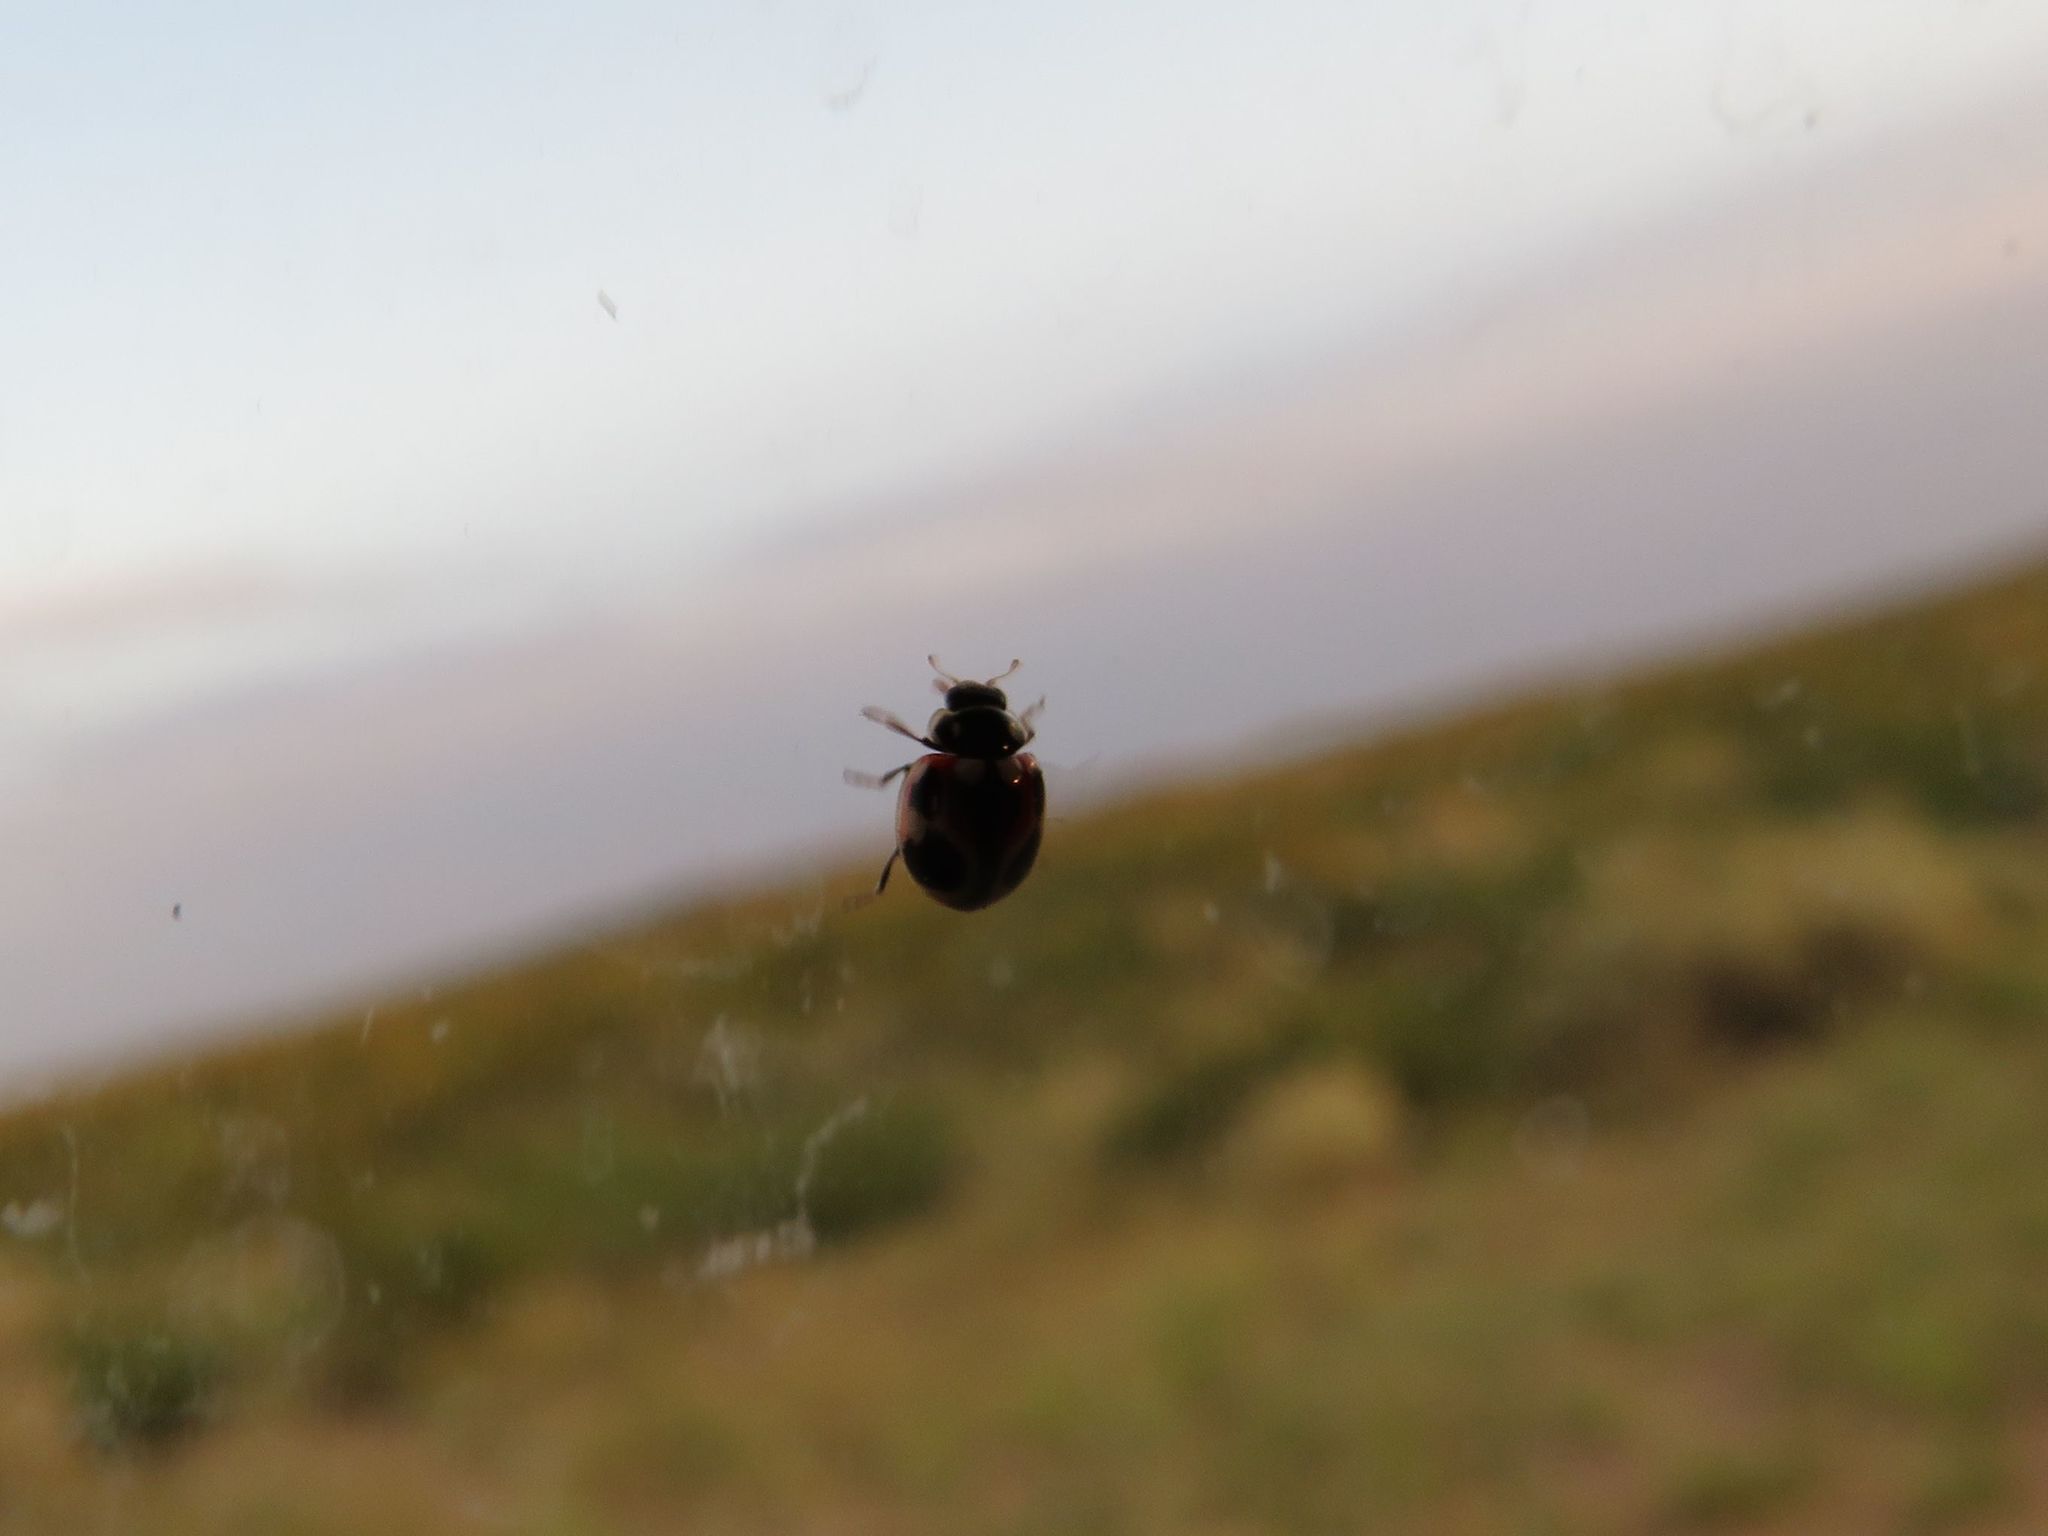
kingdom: Animalia
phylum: Arthropoda
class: Insecta
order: Coleoptera
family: Coccinellidae
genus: Cycloneda
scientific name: Cycloneda ancoralis
